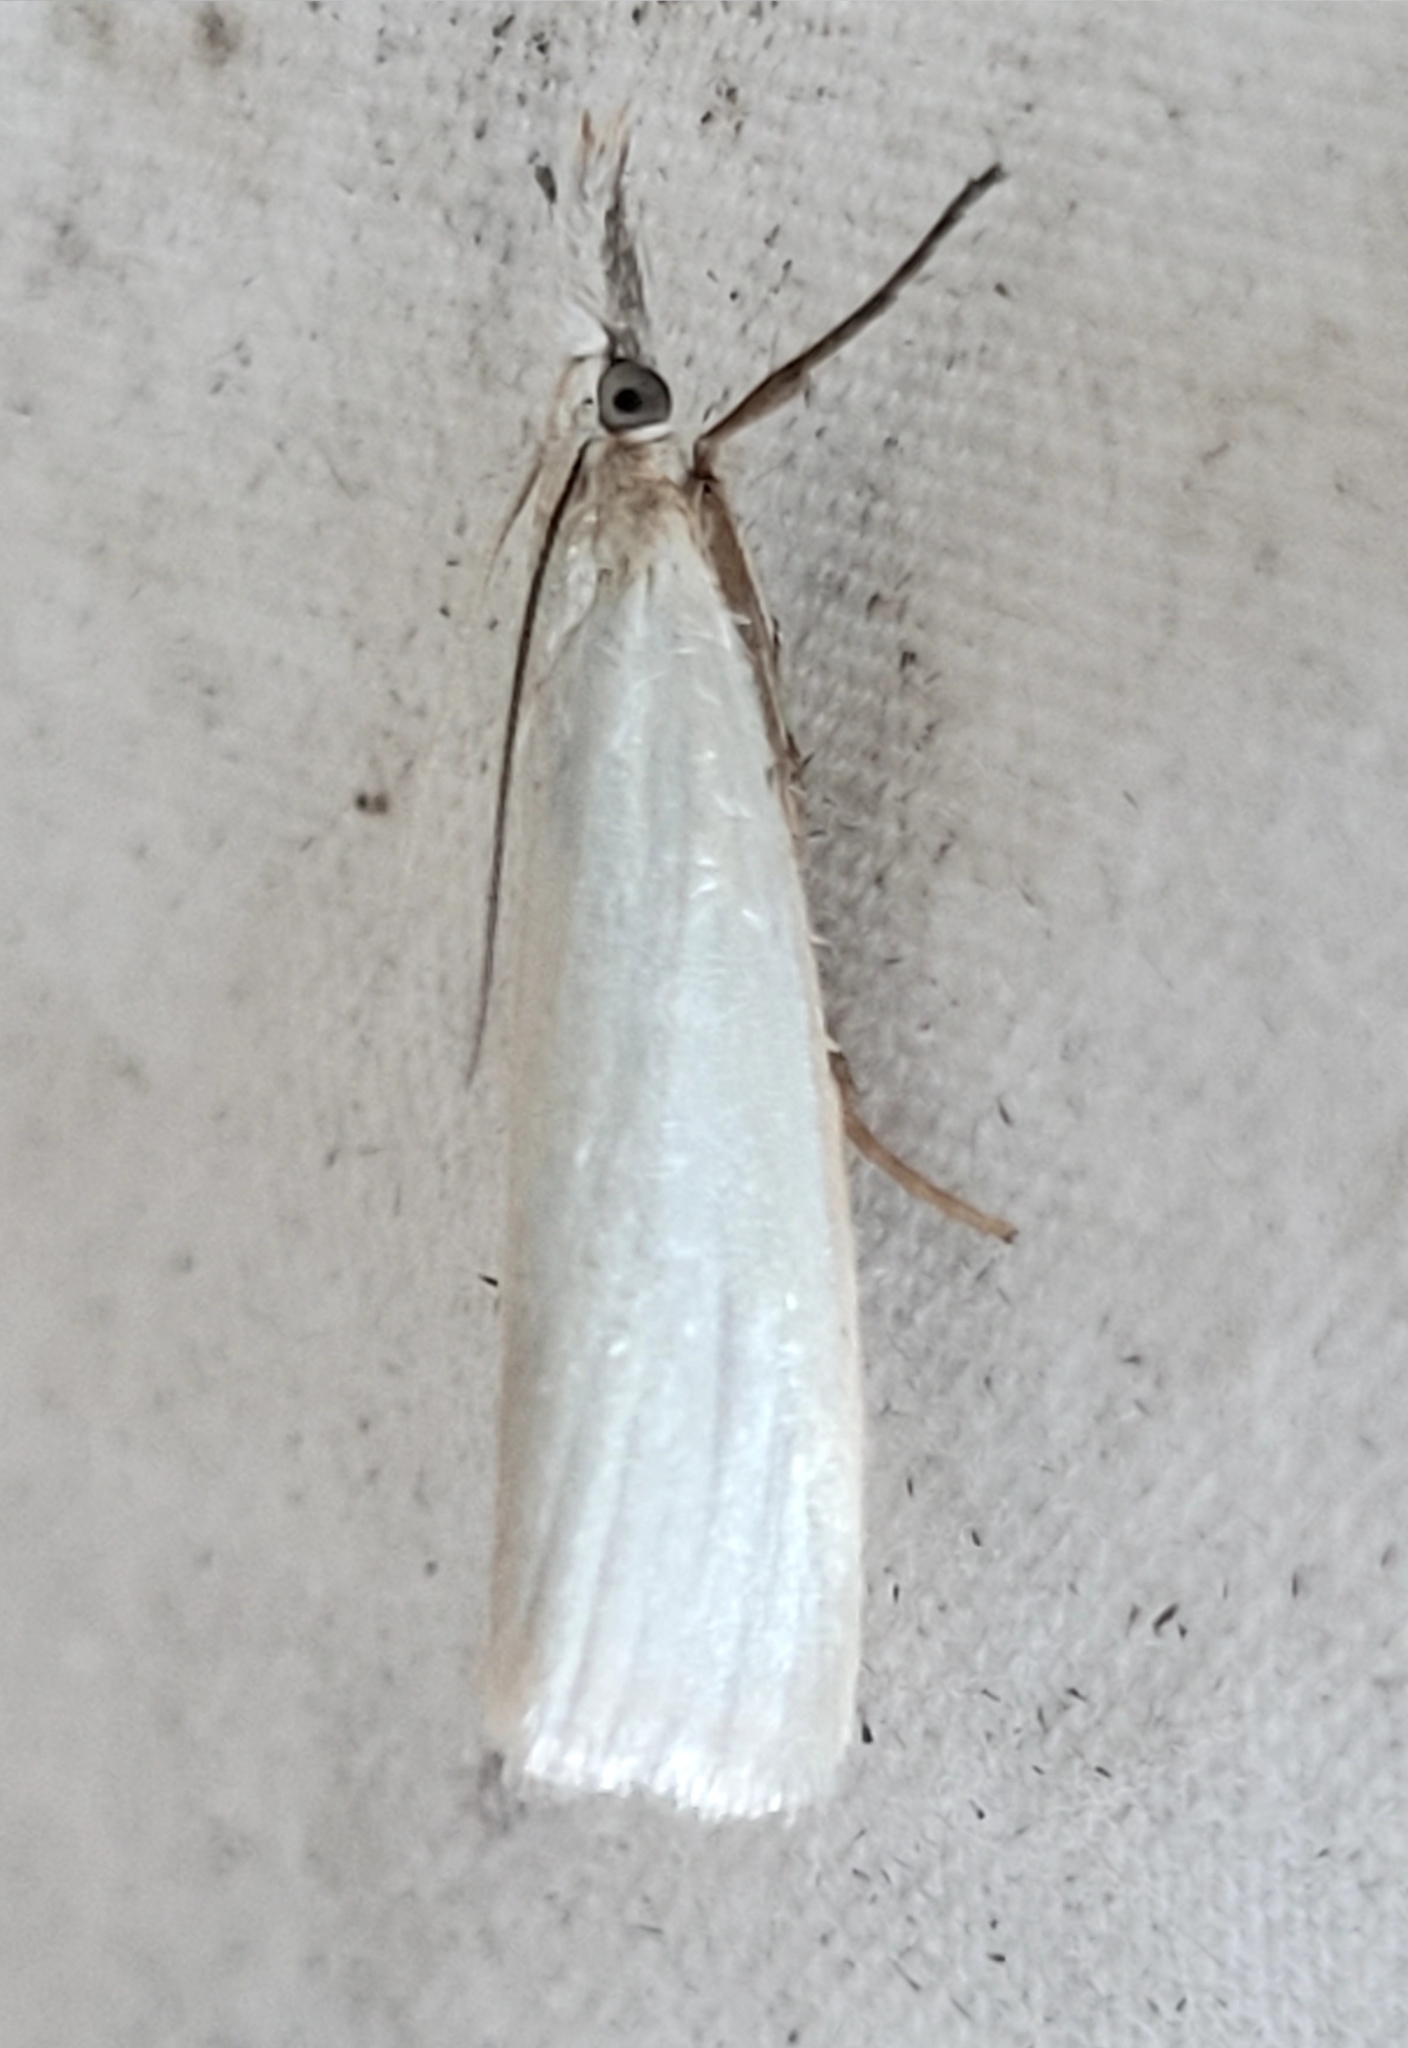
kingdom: Animalia
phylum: Arthropoda
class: Insecta
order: Lepidoptera
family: Crambidae
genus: Crambus
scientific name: Crambus perlellus
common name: Yellow satin veneer
